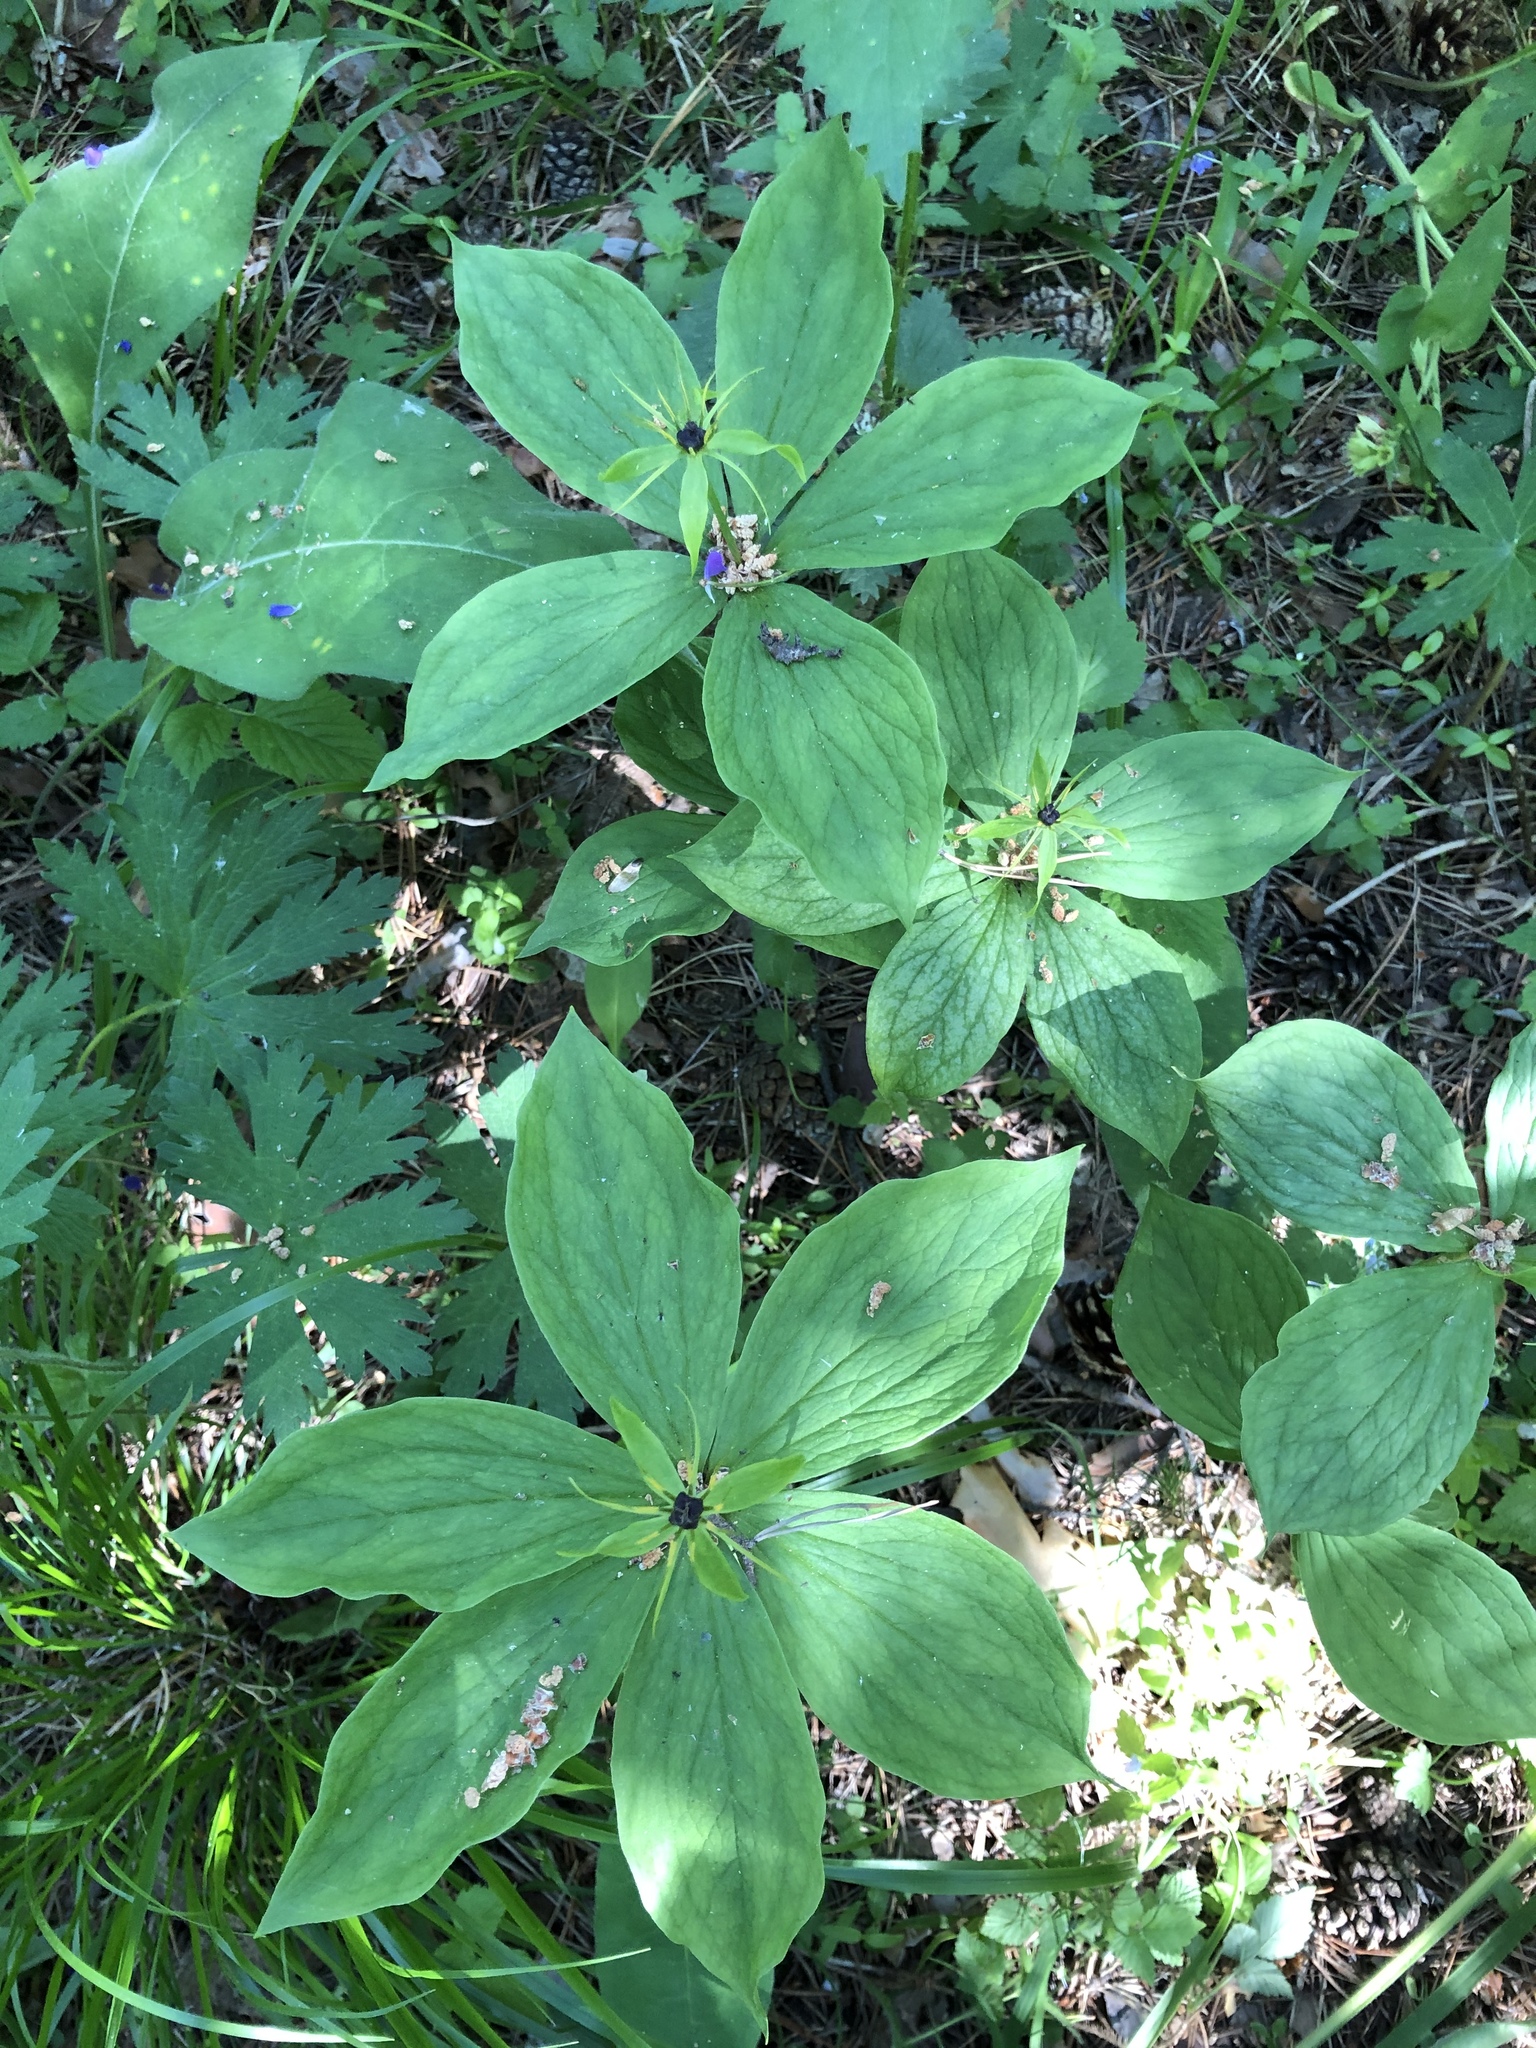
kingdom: Plantae
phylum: Tracheophyta
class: Liliopsida
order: Liliales
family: Melanthiaceae
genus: Paris
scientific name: Paris quadrifolia
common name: Herb-paris
